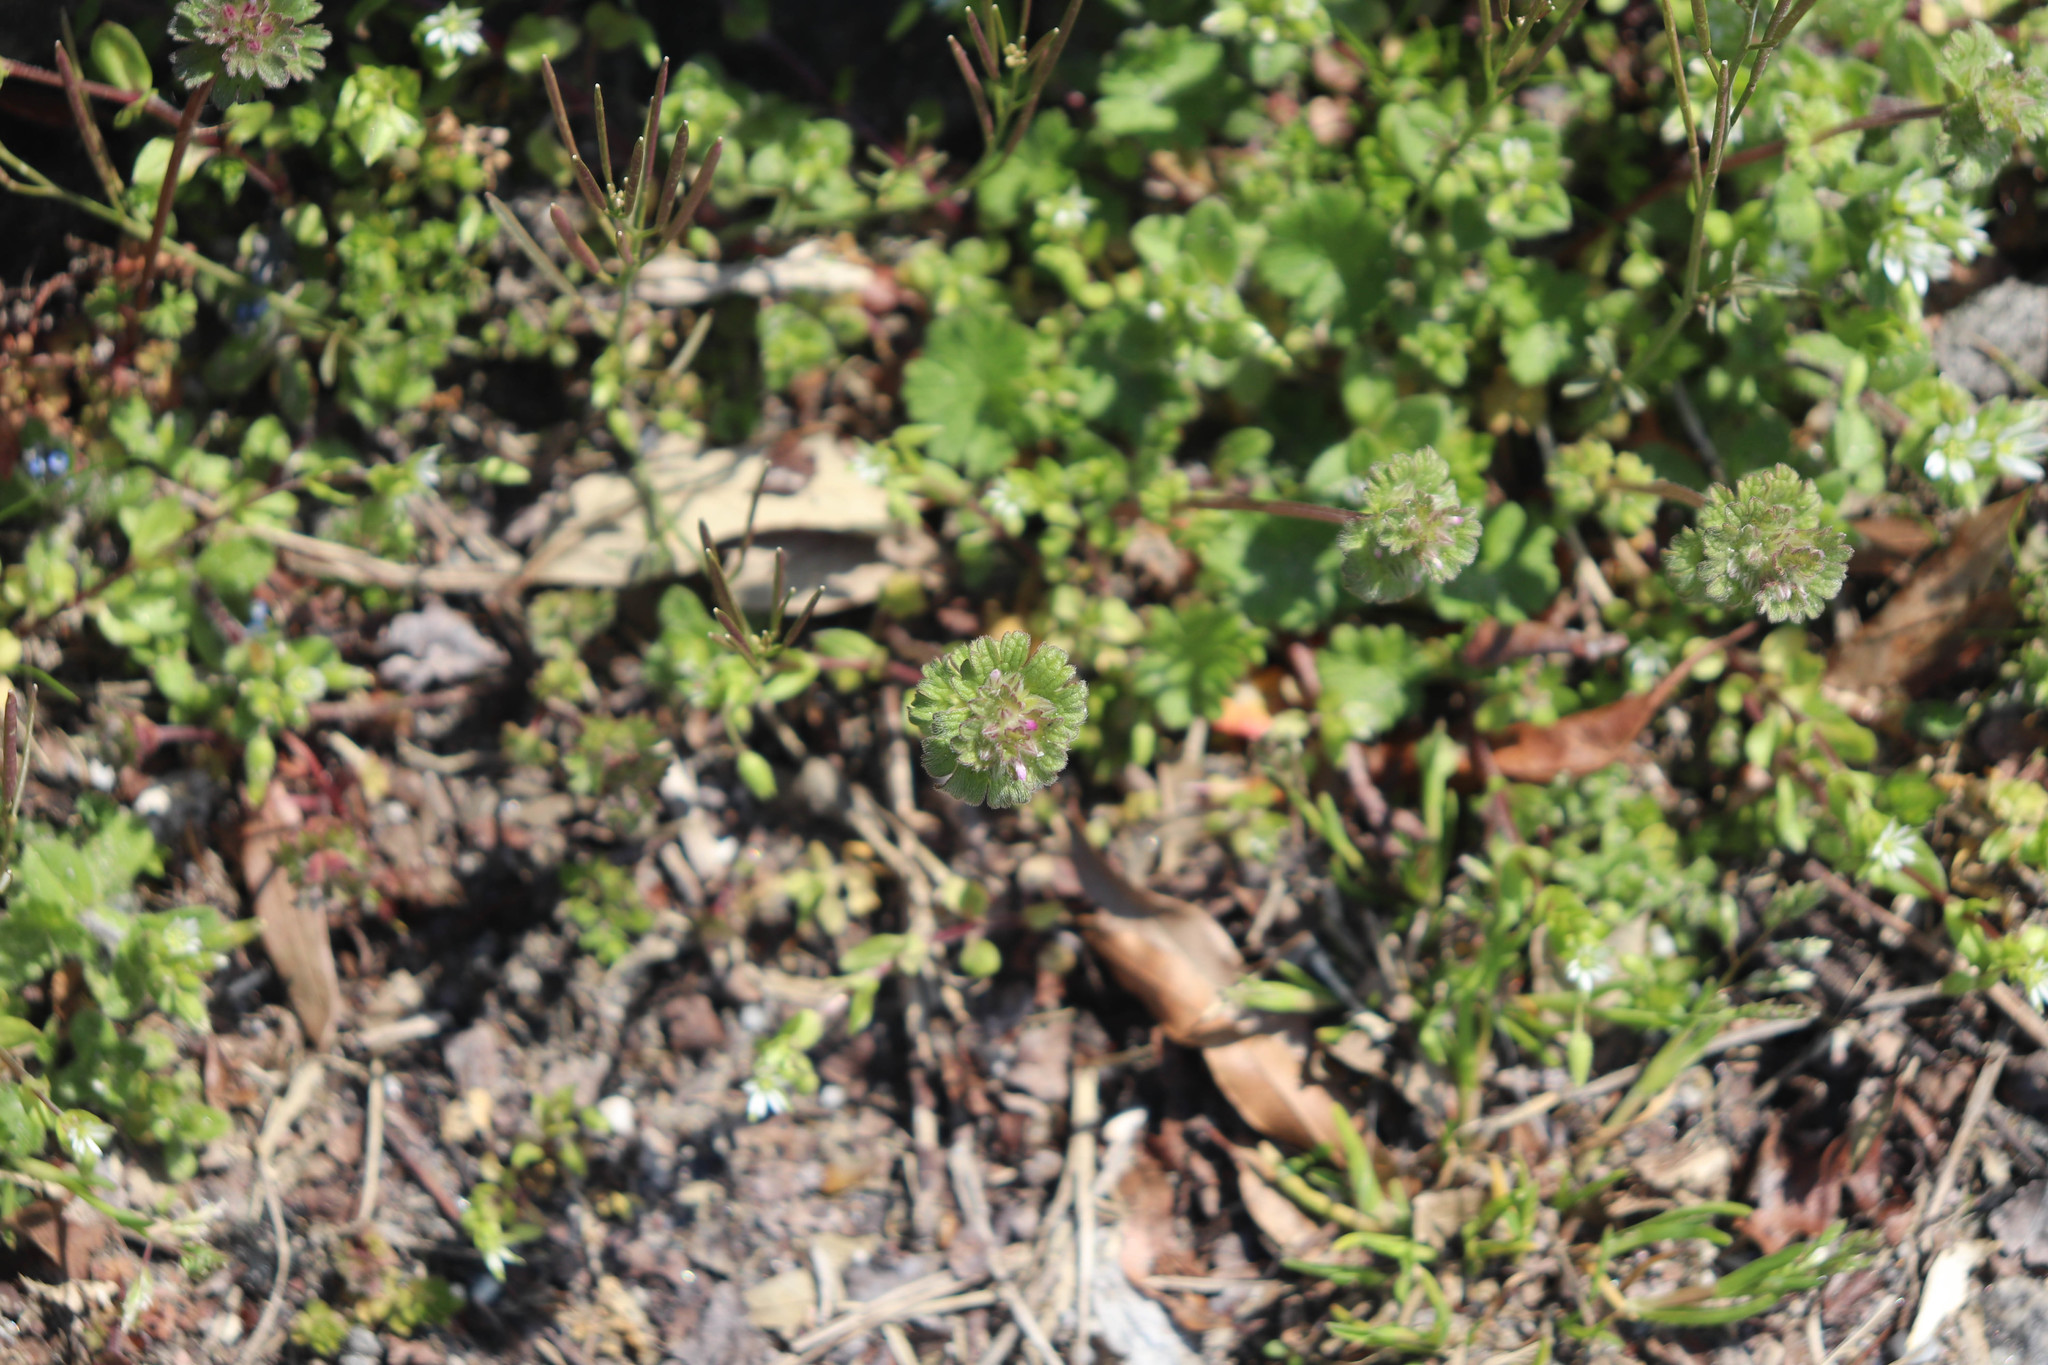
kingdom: Plantae
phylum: Tracheophyta
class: Magnoliopsida
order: Lamiales
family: Lamiaceae
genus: Lamium
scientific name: Lamium amplexicaule
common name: Henbit dead-nettle
